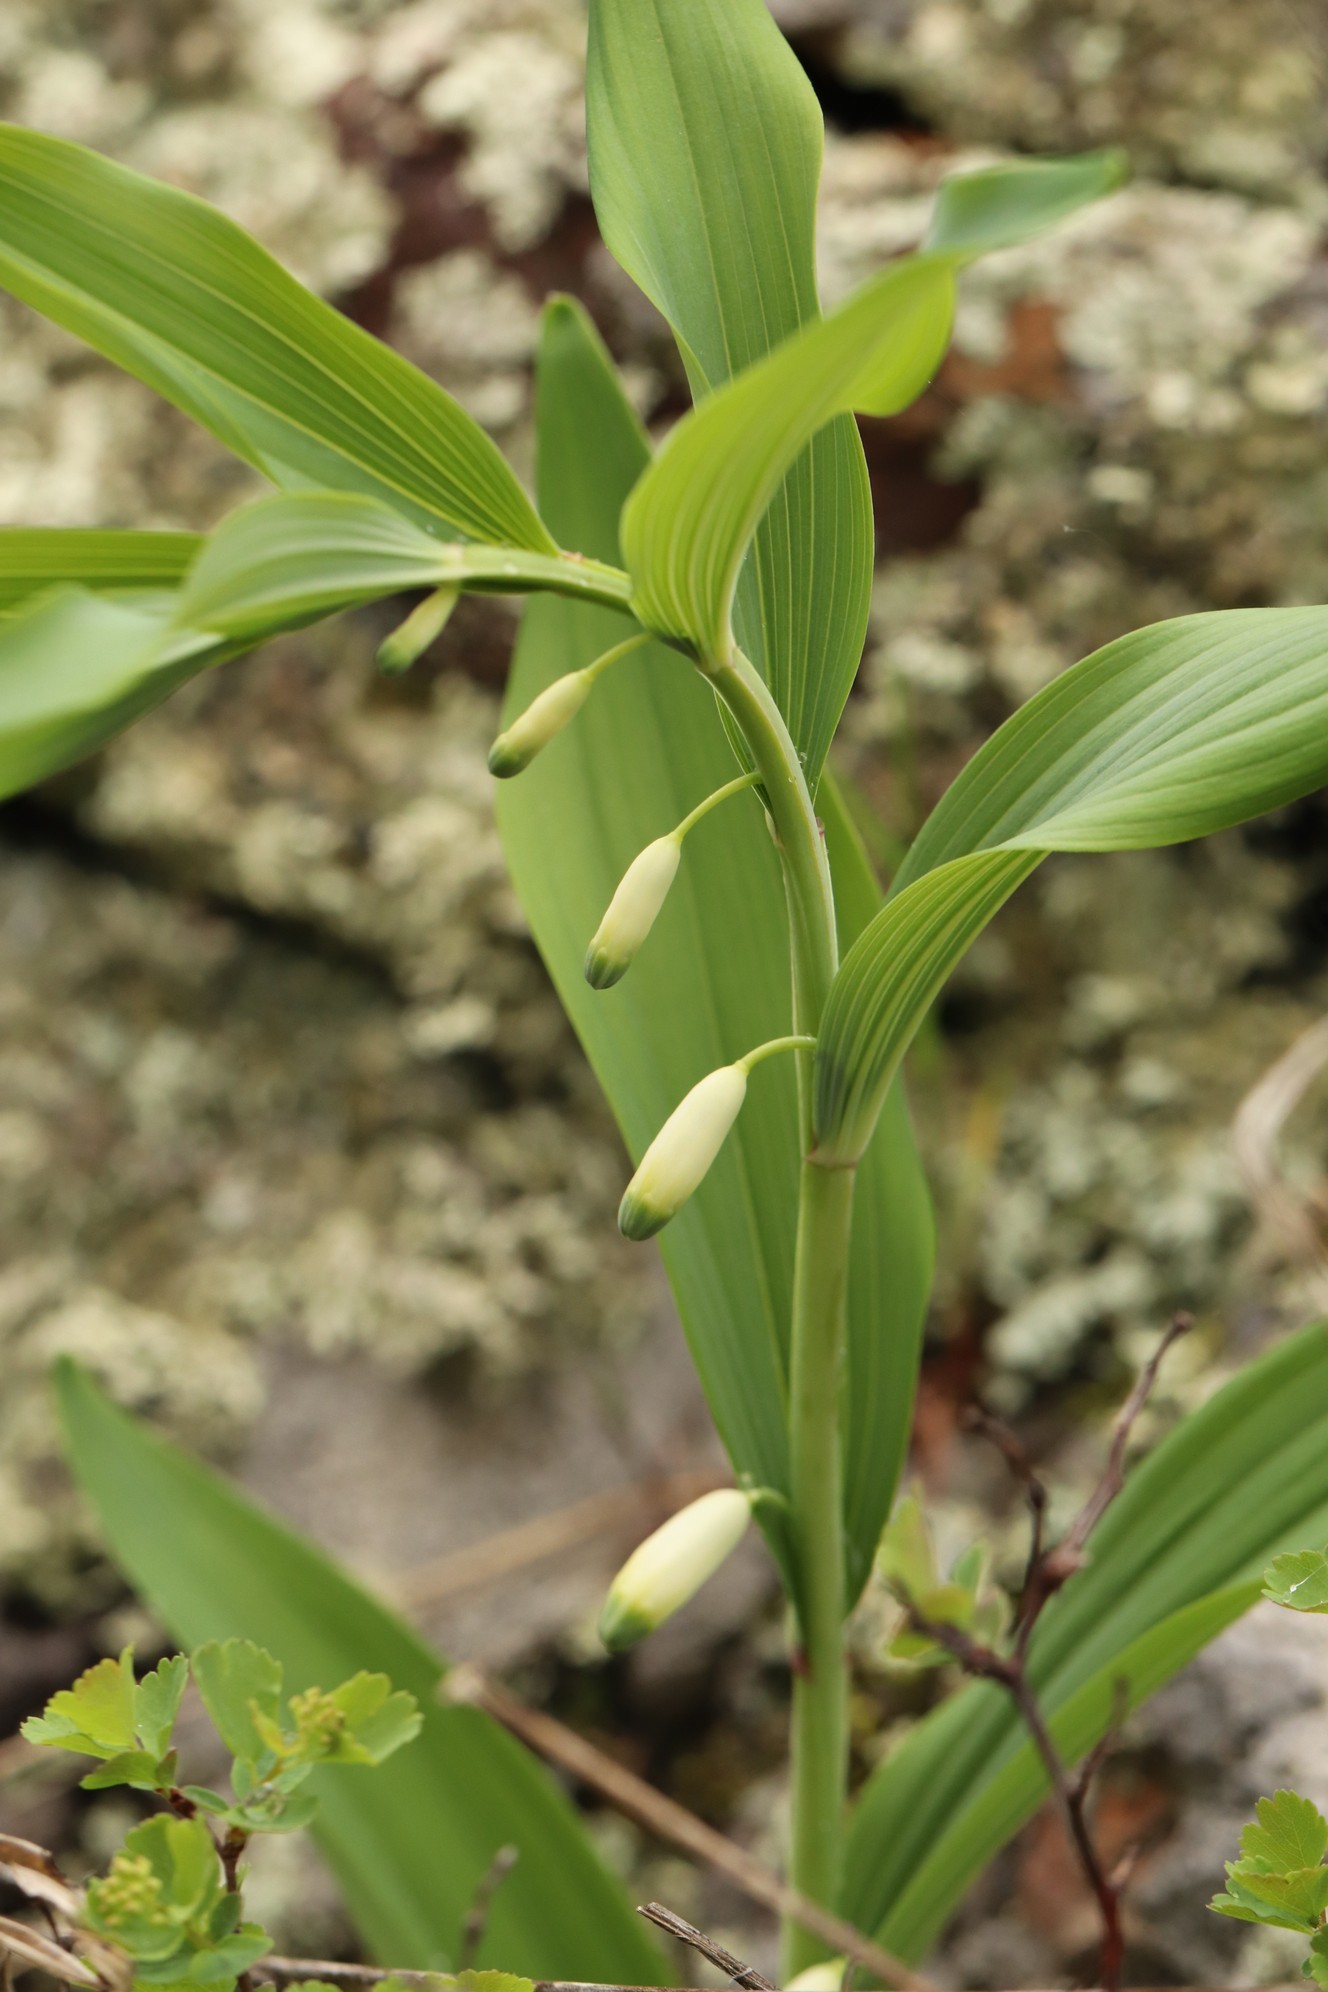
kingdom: Plantae
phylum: Tracheophyta
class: Liliopsida
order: Asparagales
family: Asparagaceae
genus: Polygonatum
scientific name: Polygonatum odoratum
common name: Angular solomon's-seal
